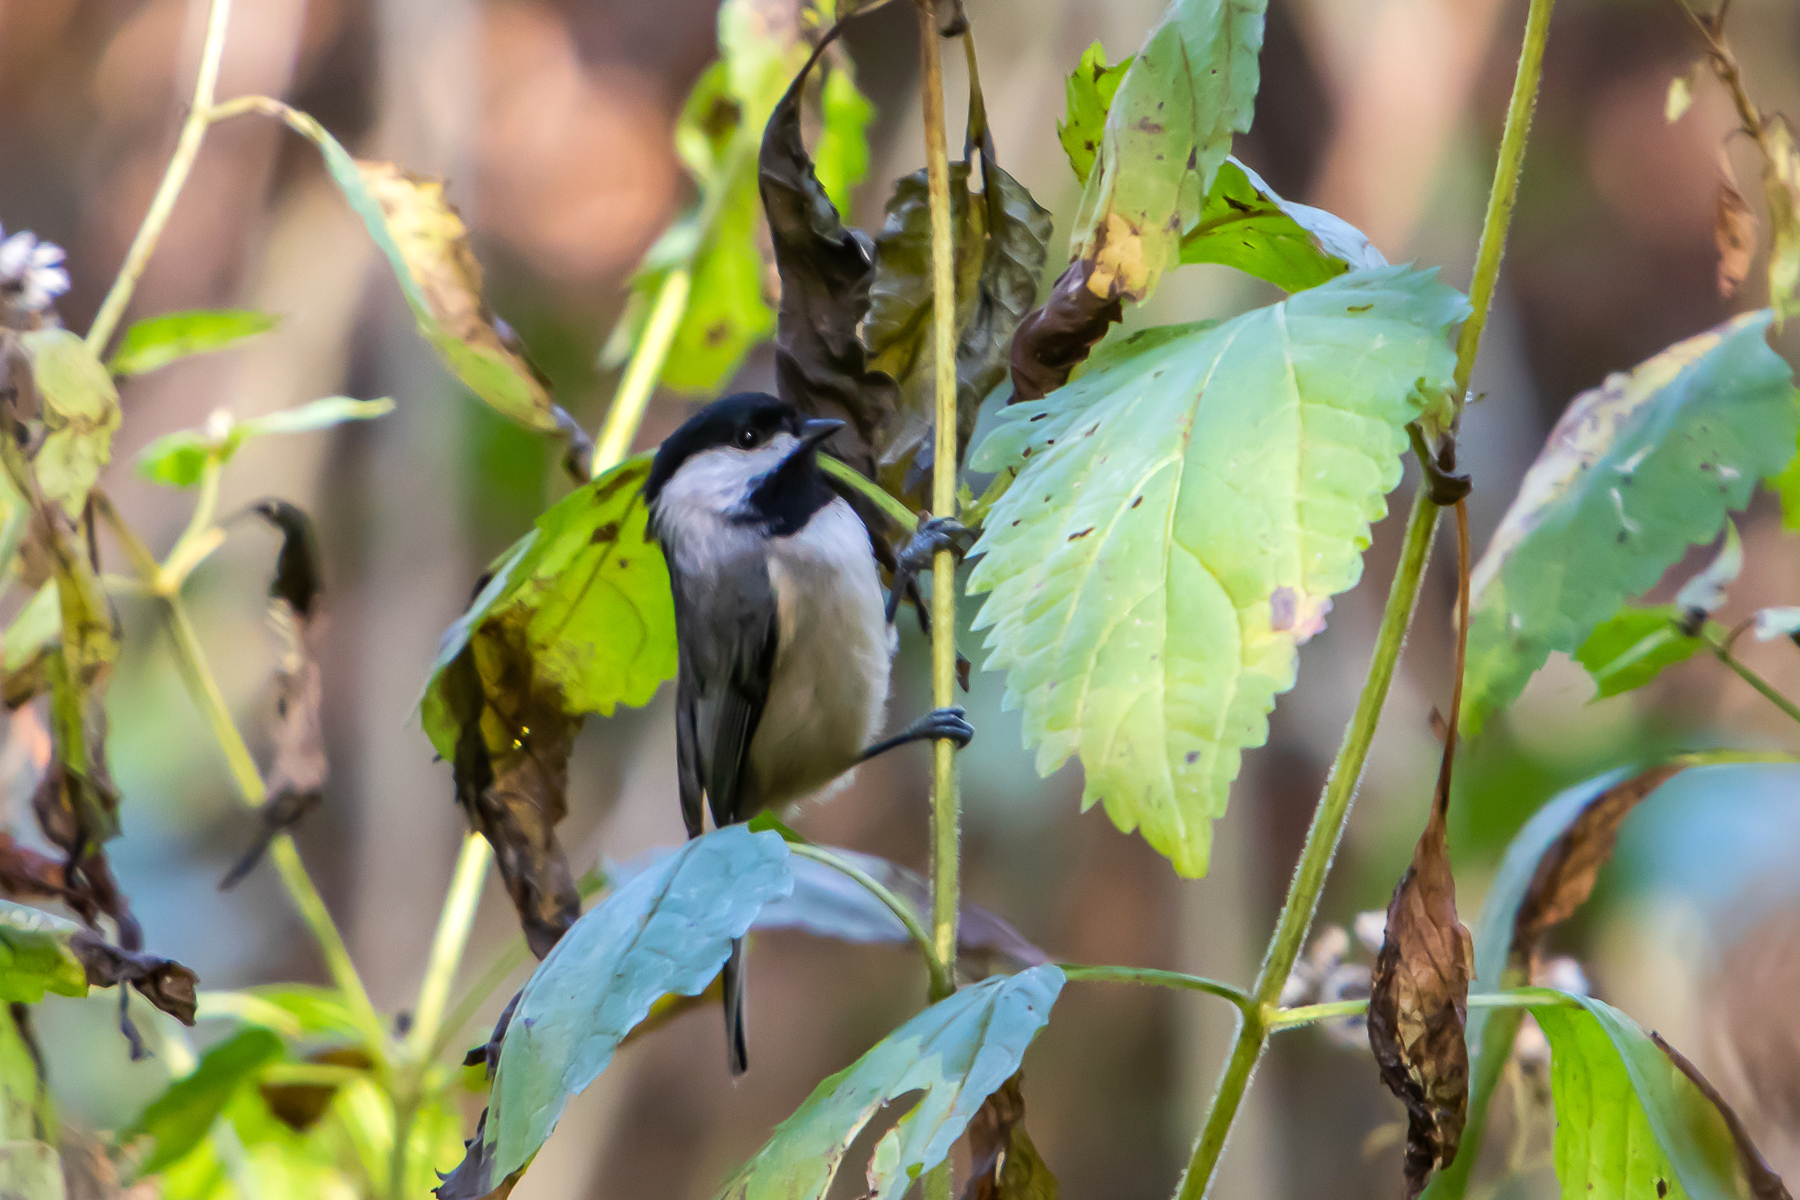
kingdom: Animalia
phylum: Chordata
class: Aves
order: Passeriformes
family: Paridae
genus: Poecile
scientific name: Poecile carolinensis
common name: Carolina chickadee
